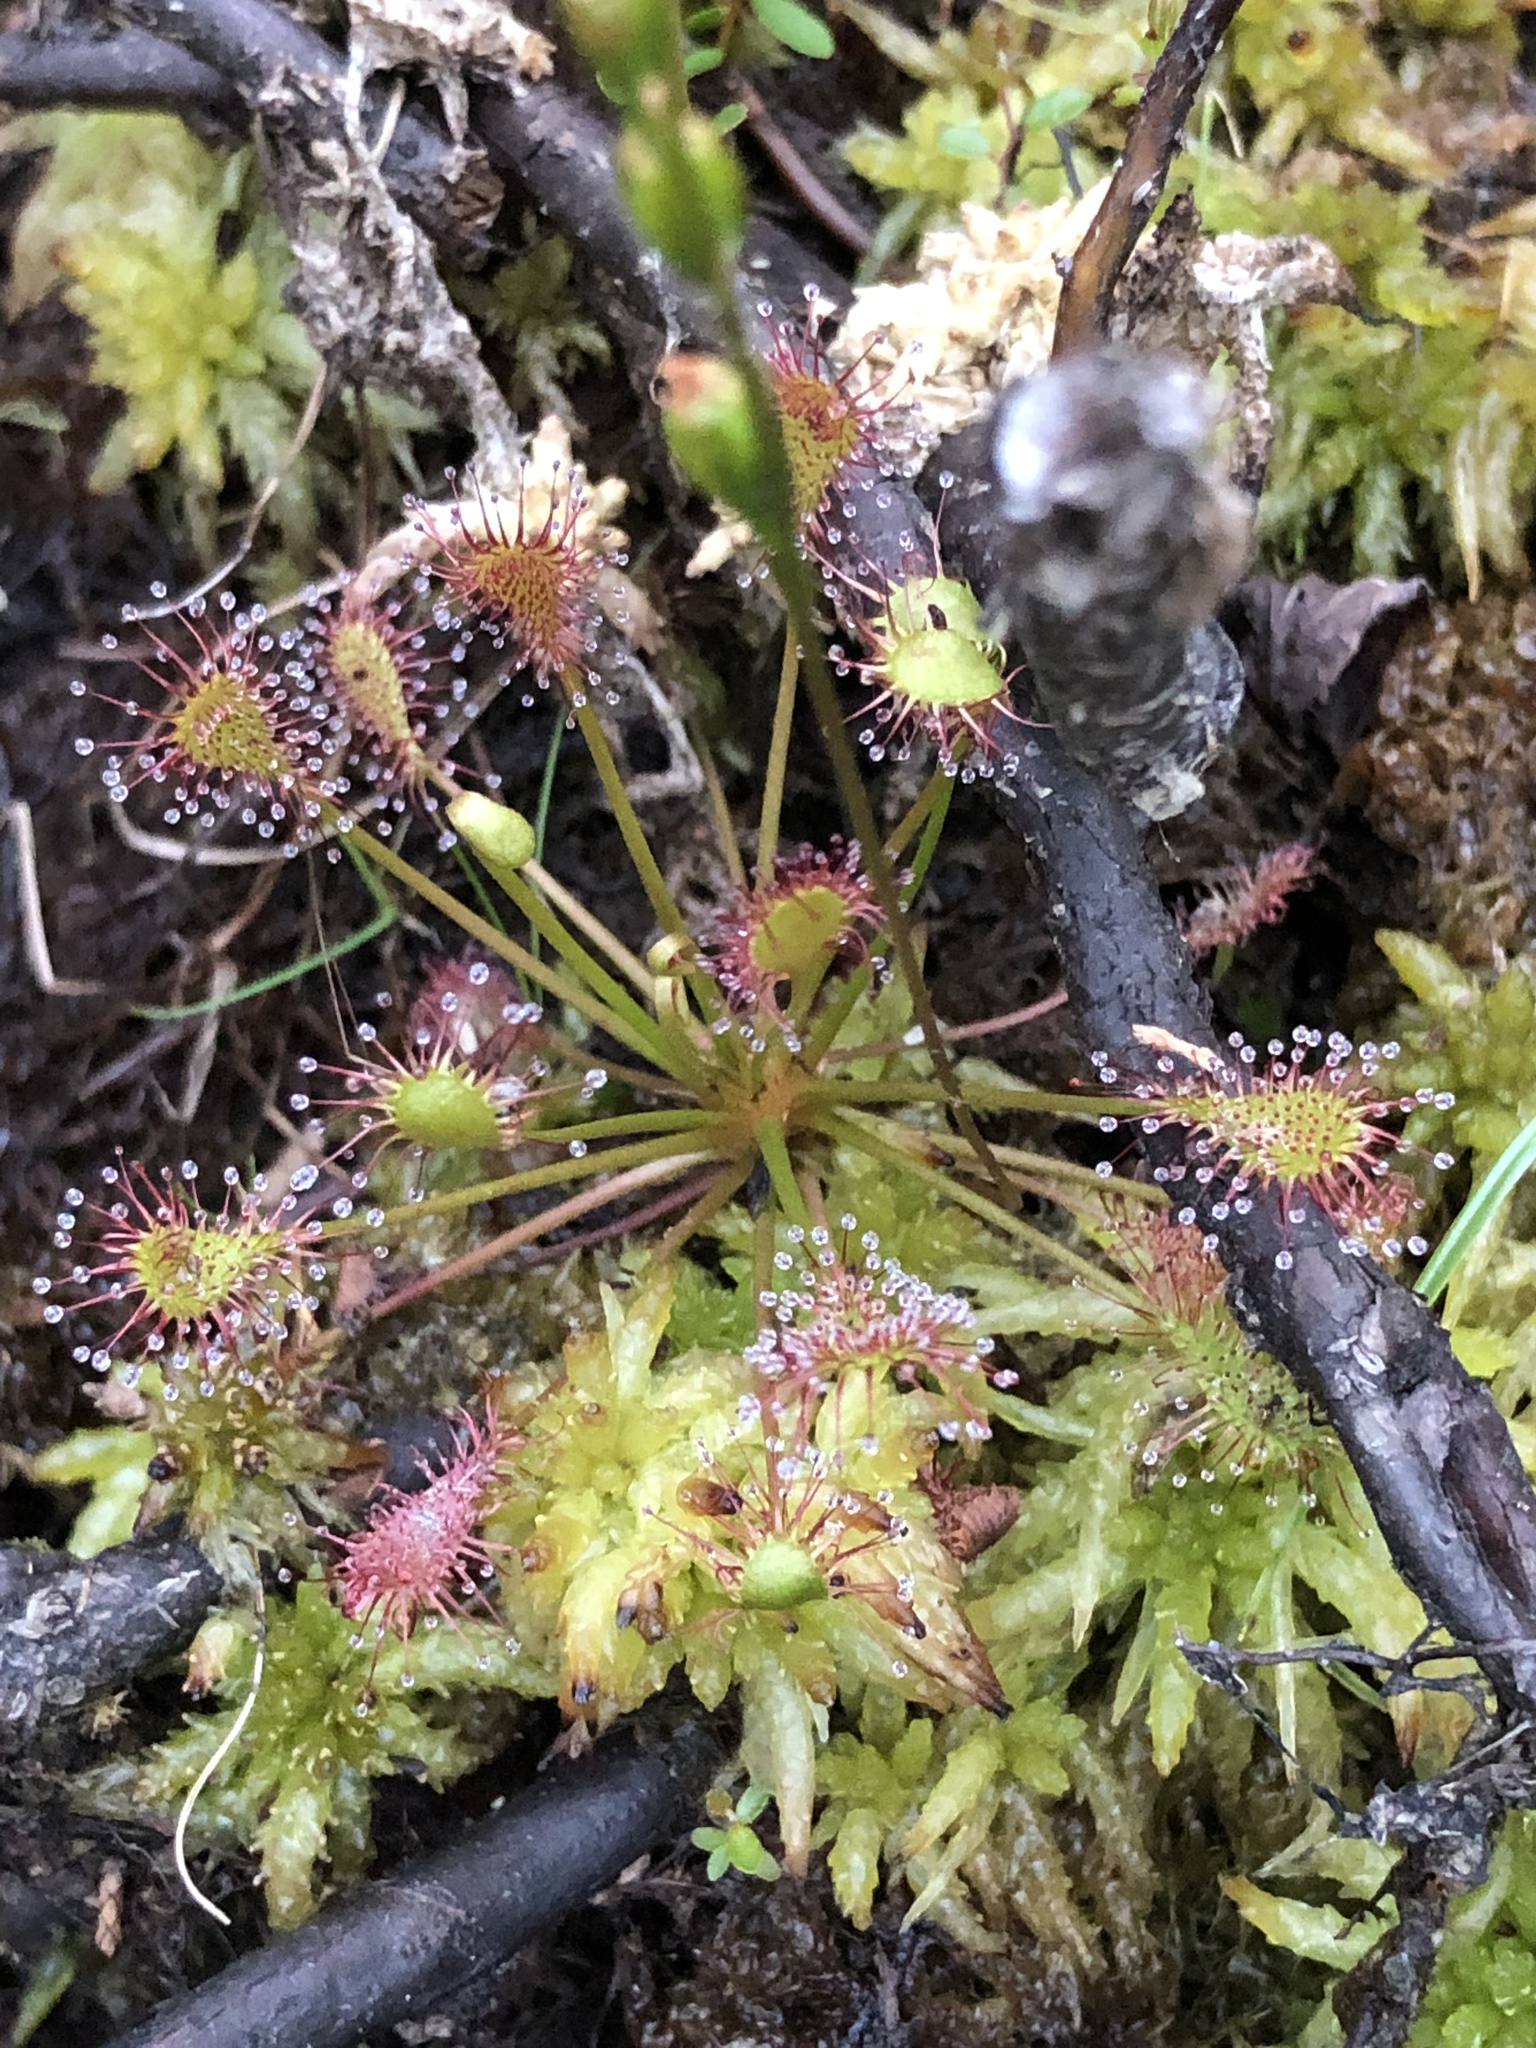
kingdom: Plantae
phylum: Tracheophyta
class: Magnoliopsida
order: Caryophyllales
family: Droseraceae
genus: Drosera
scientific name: Drosera intermedia
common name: Oblong-leaved sundew
